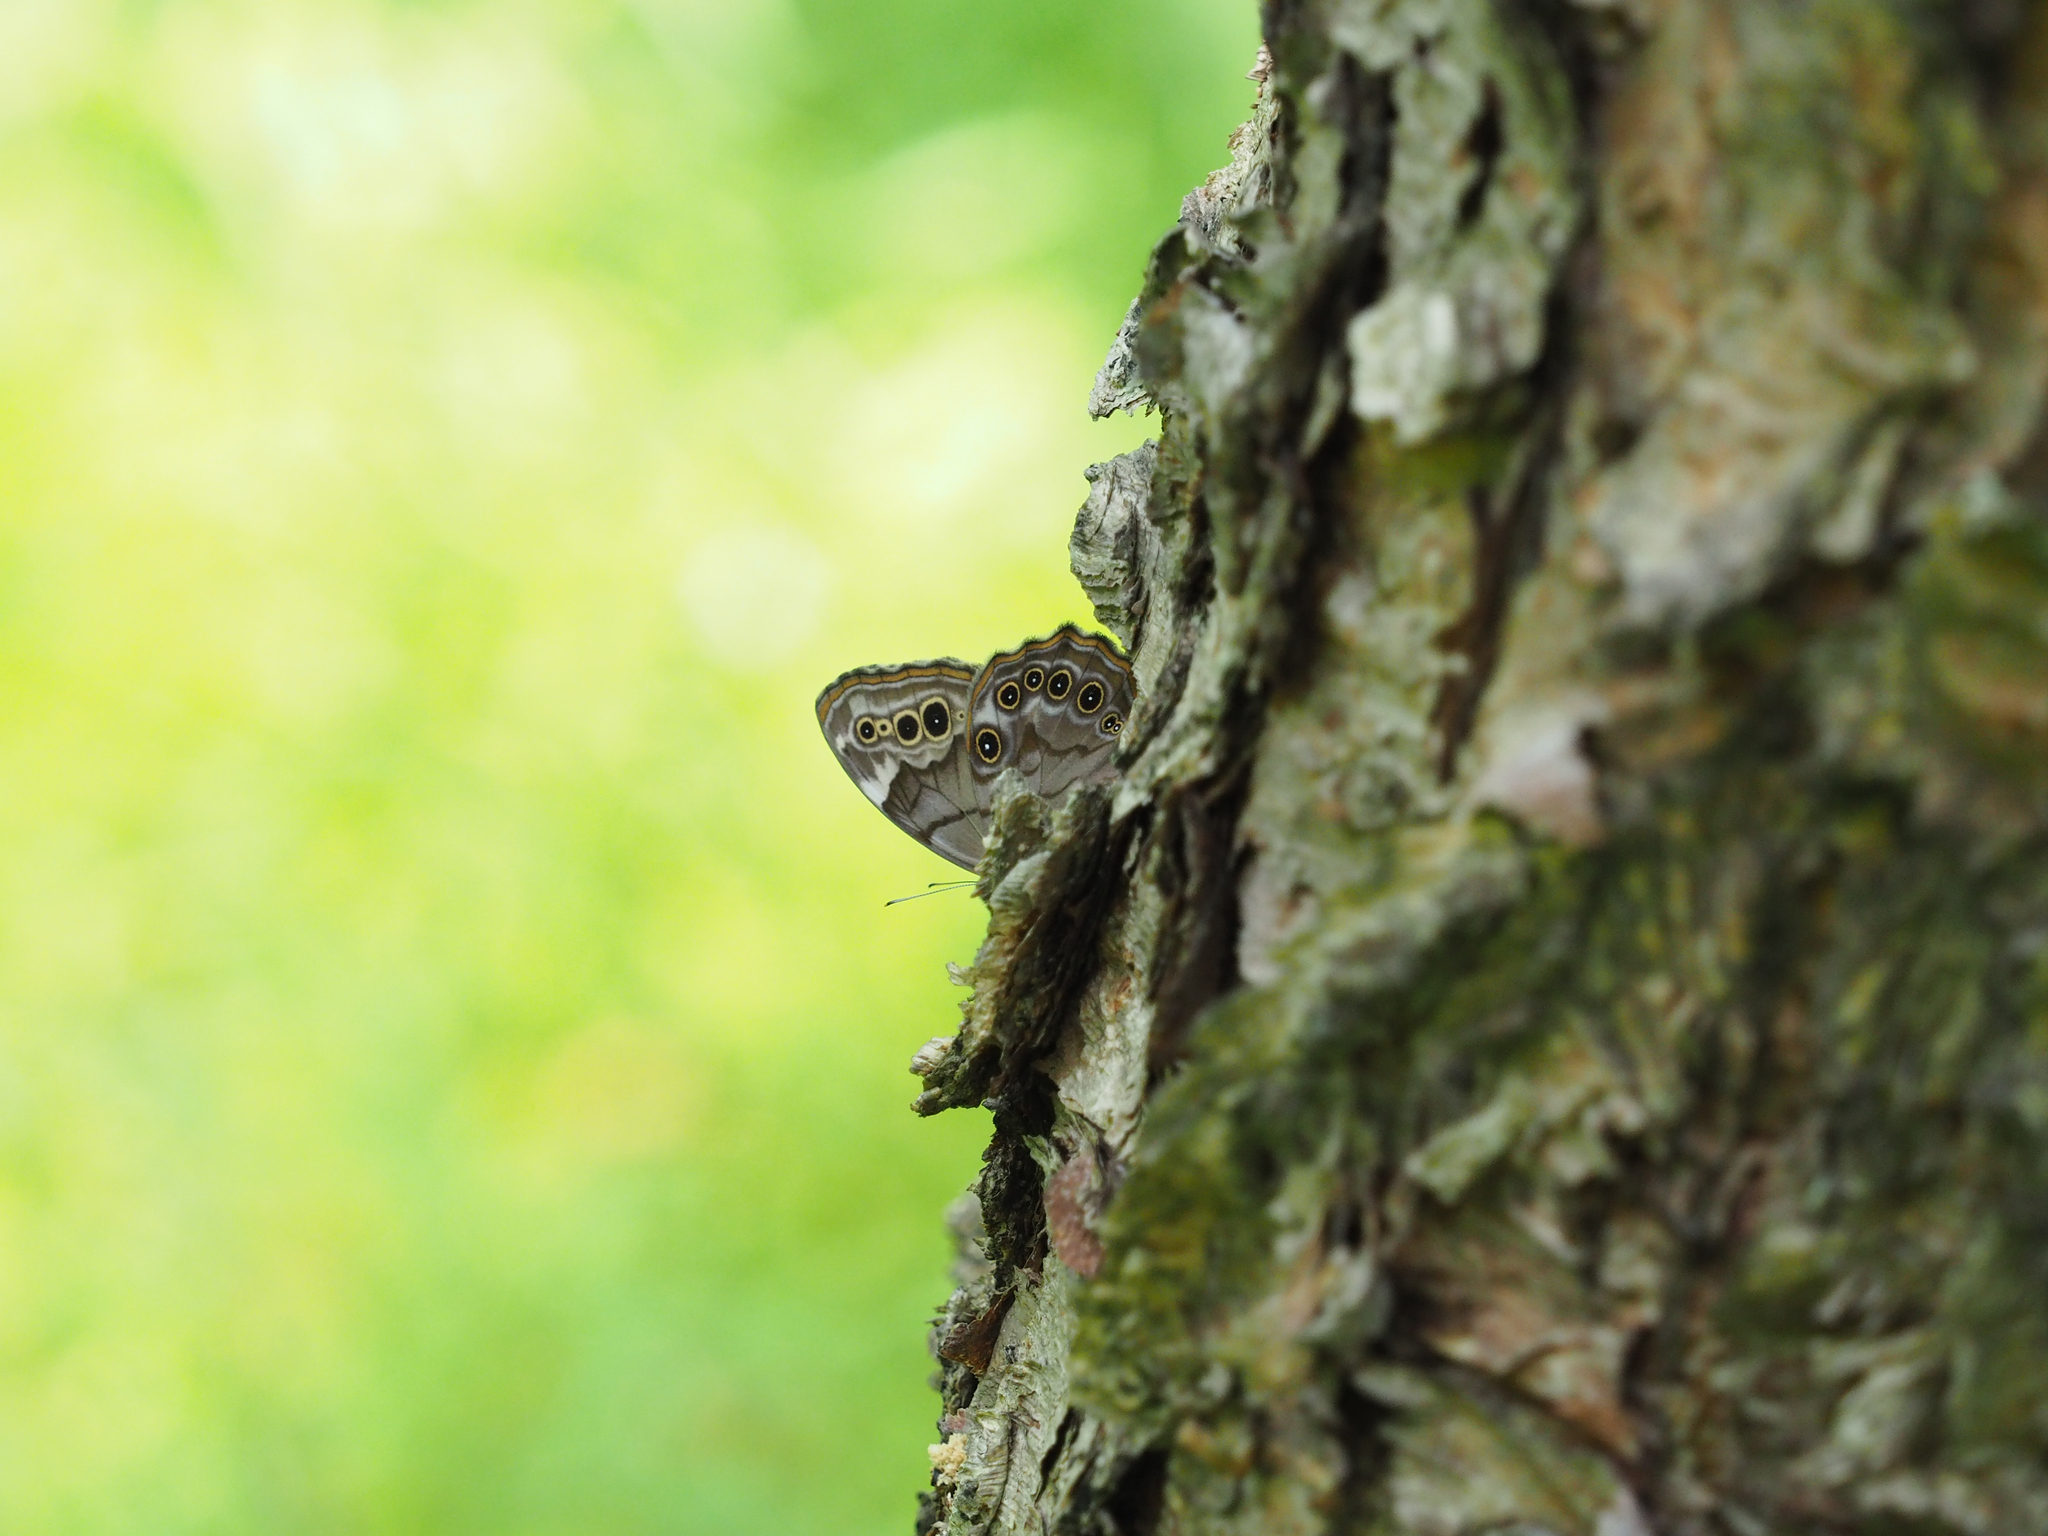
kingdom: Animalia
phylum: Arthropoda
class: Insecta
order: Lepidoptera
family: Nymphalidae
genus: Lethe
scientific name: Lethe anthedon
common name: Northern pearly-eye
